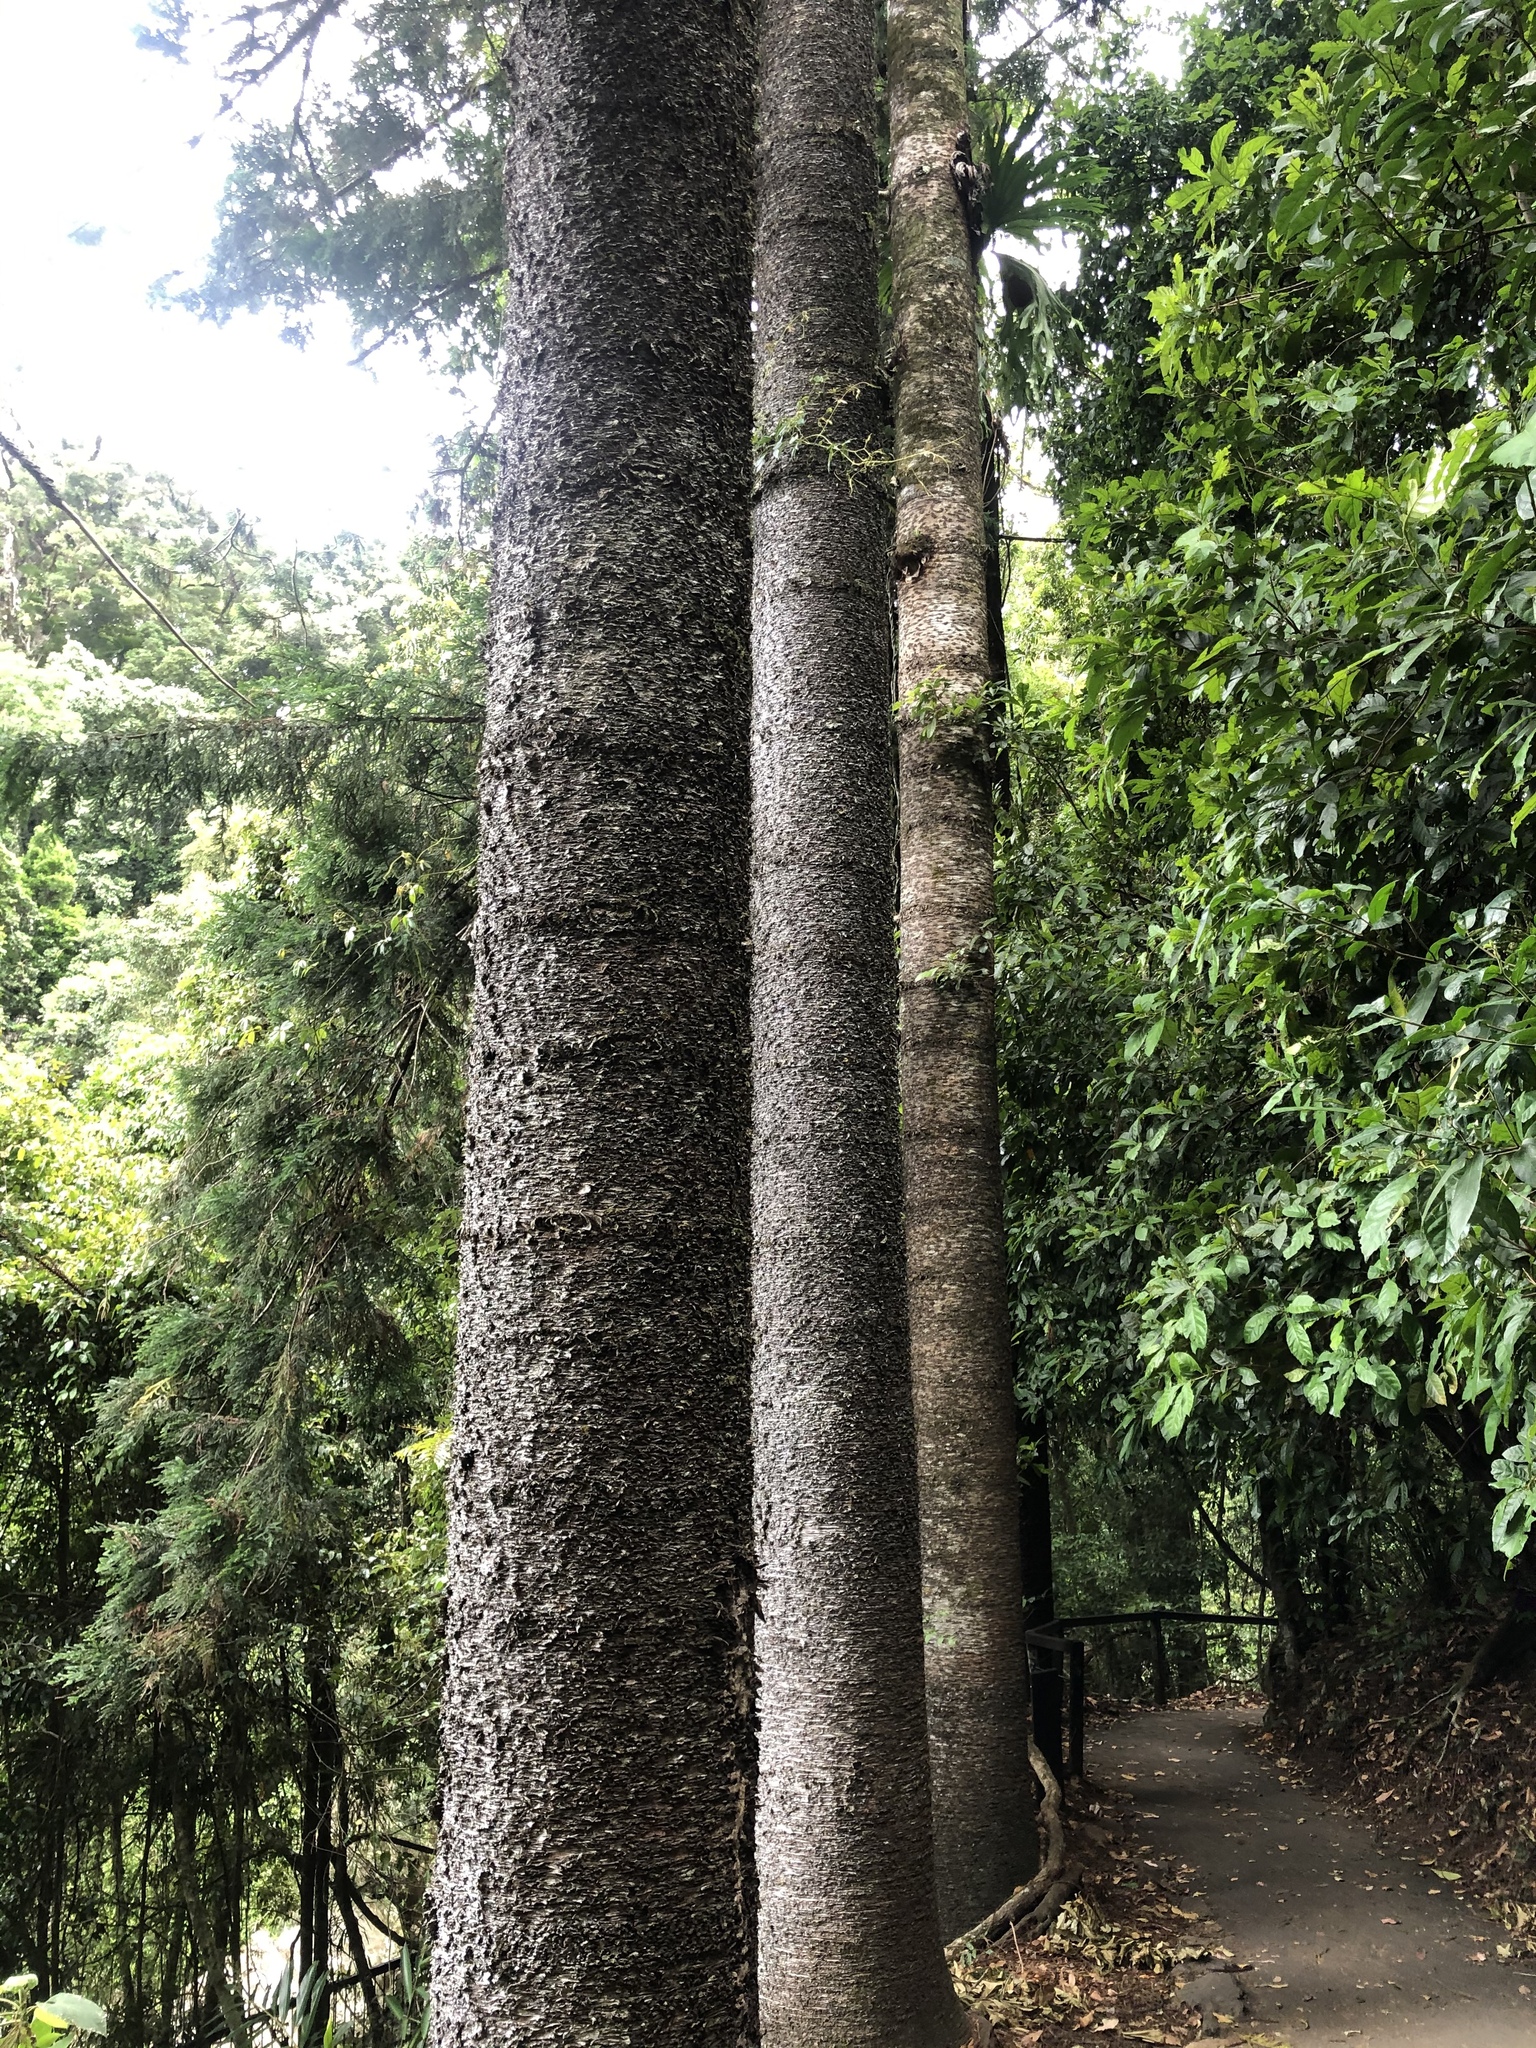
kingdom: Plantae
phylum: Tracheophyta
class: Pinopsida
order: Pinales
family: Araucariaceae
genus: Araucaria
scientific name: Araucaria cunninghamii
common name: Colonial pine
